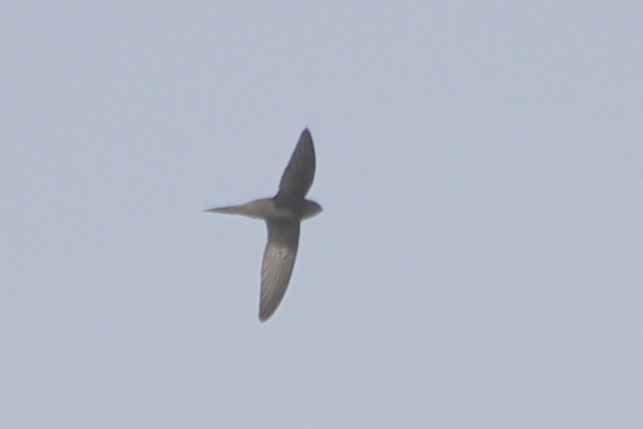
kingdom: Animalia
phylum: Chordata
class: Aves
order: Apodiformes
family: Apodidae
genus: Apus
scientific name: Apus apus
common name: Common swift
